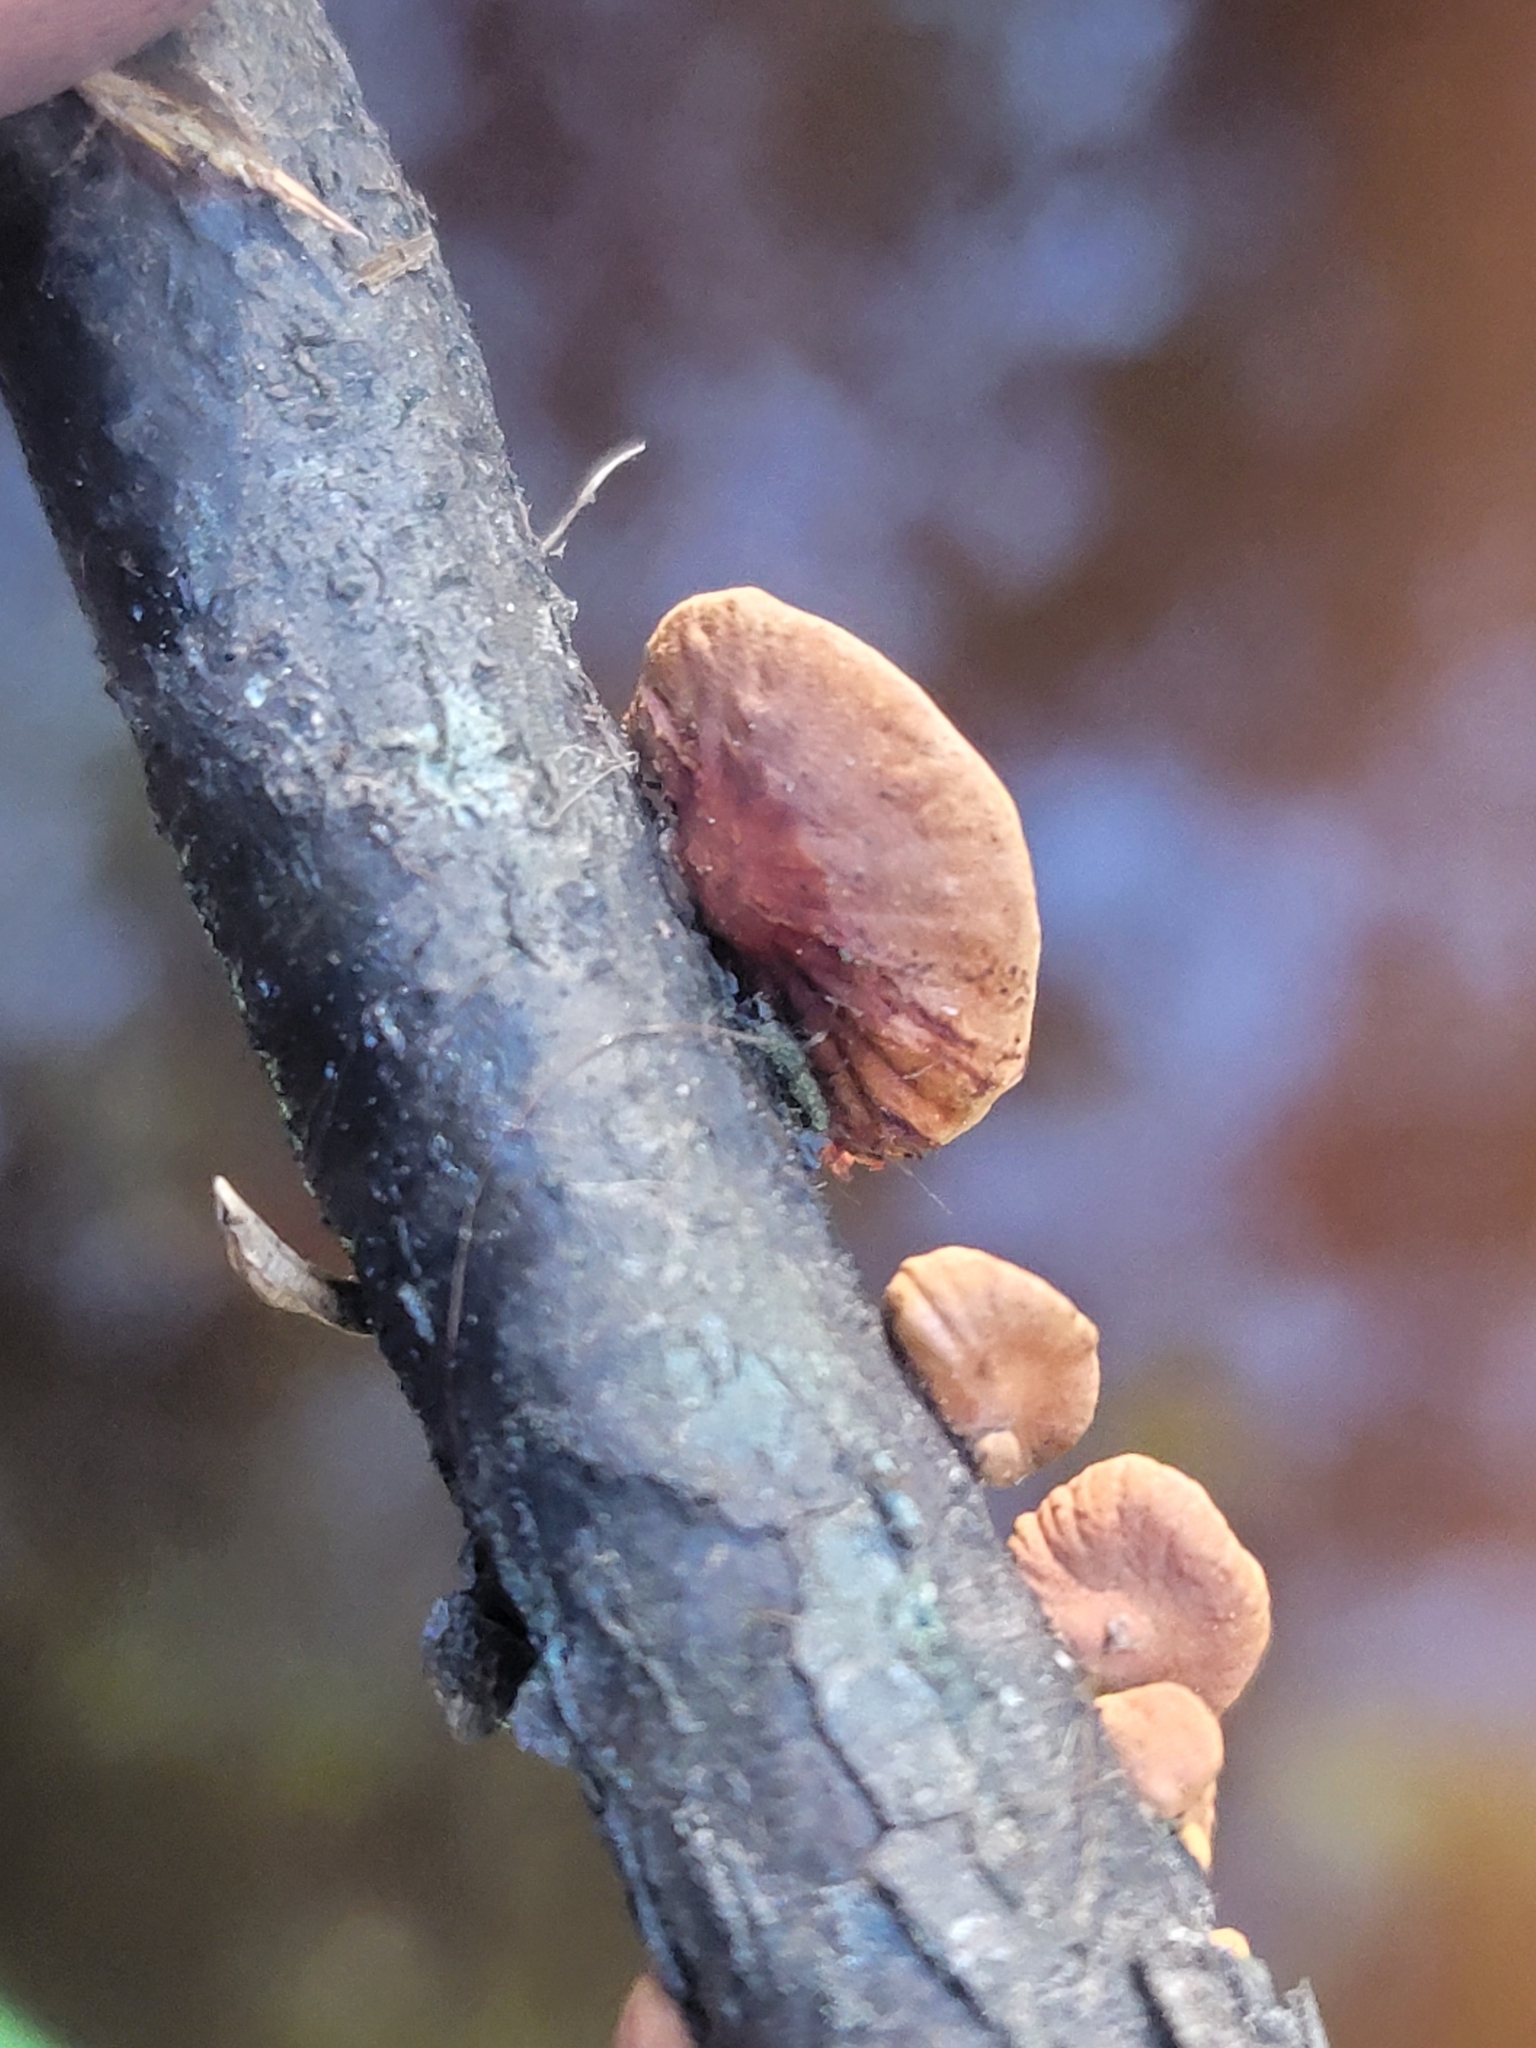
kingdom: Fungi
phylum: Basidiomycota
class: Agaricomycetes
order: Agaricales
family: Omphalotaceae
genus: Anthracophyllum
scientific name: Anthracophyllum lateritium
